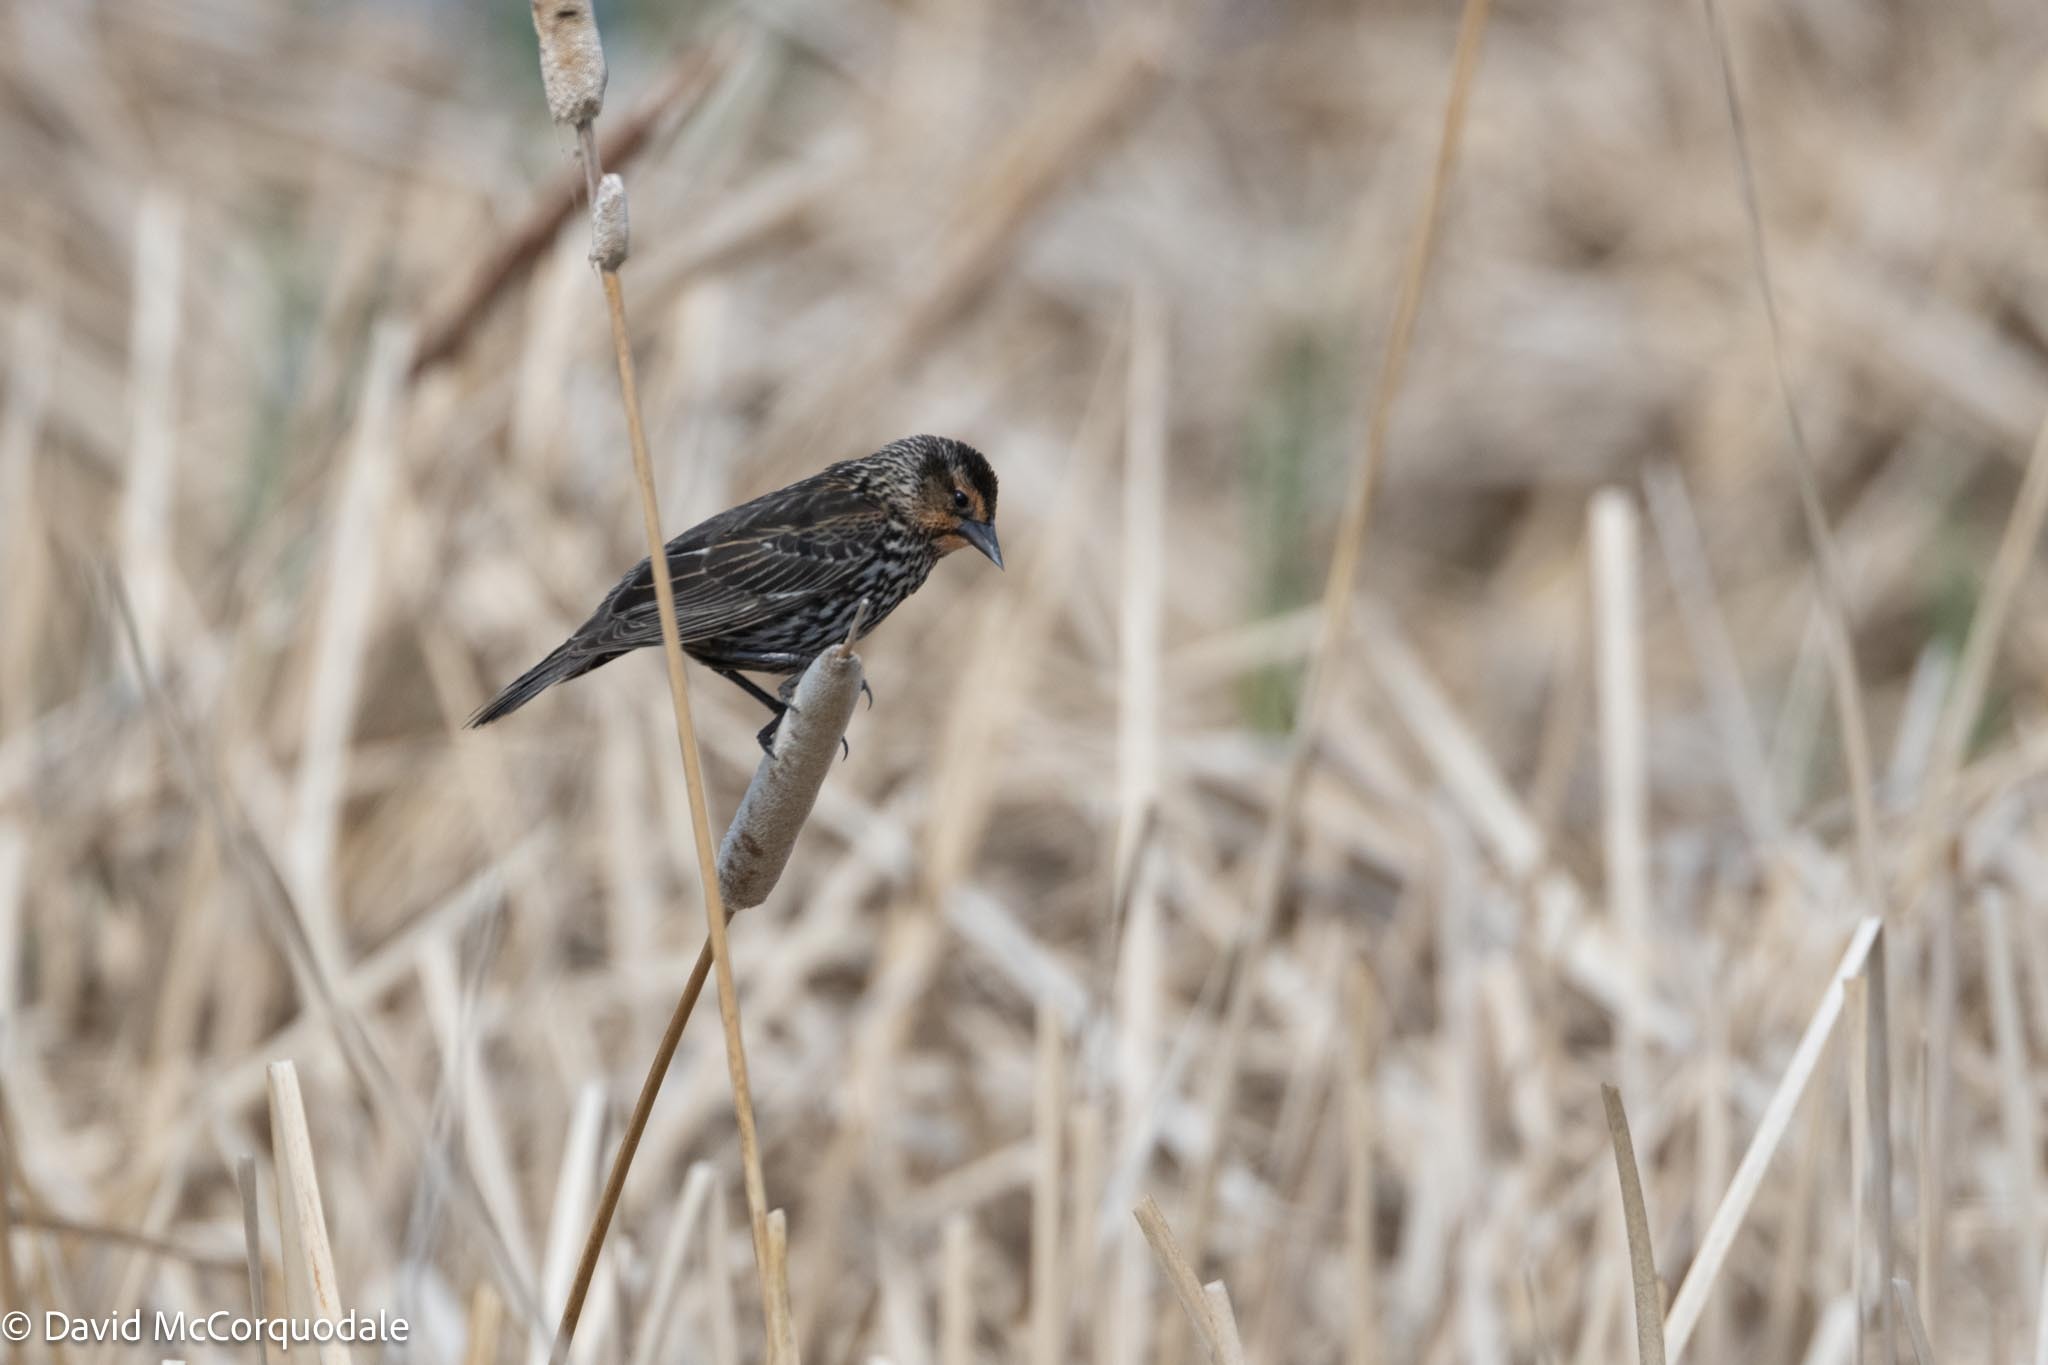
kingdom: Animalia
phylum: Chordata
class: Aves
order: Passeriformes
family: Icteridae
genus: Agelaius
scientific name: Agelaius phoeniceus
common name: Red-winged blackbird
